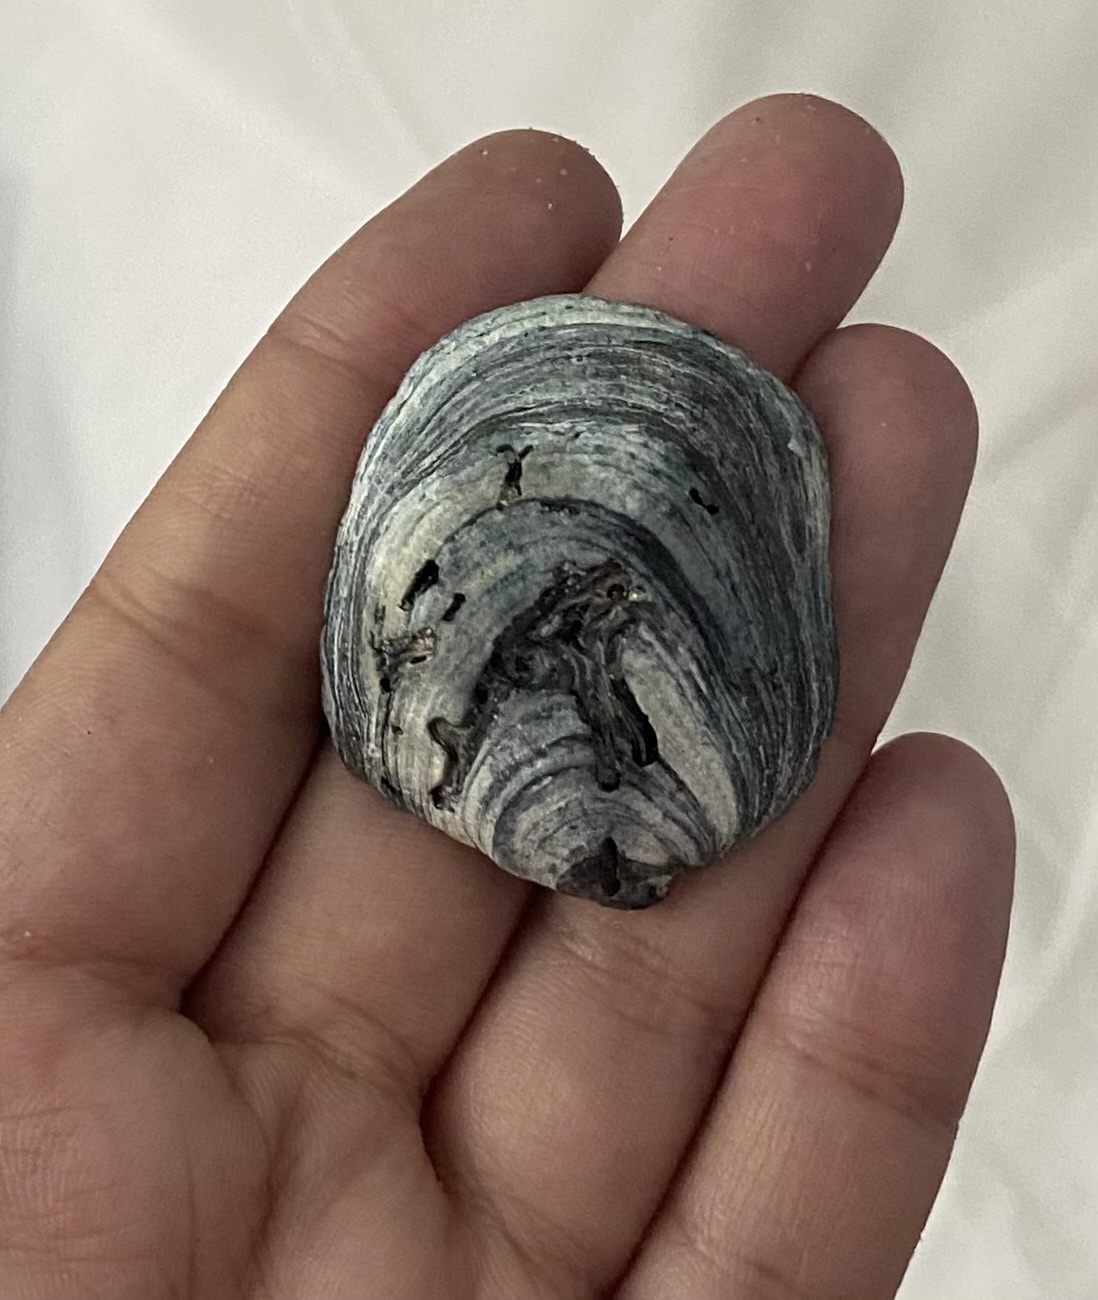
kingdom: Animalia
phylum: Mollusca
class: Gastropoda
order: Littorinimorpha
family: Calyptraeidae
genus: Crepidula
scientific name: Crepidula fornicata
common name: Slipper limpet
